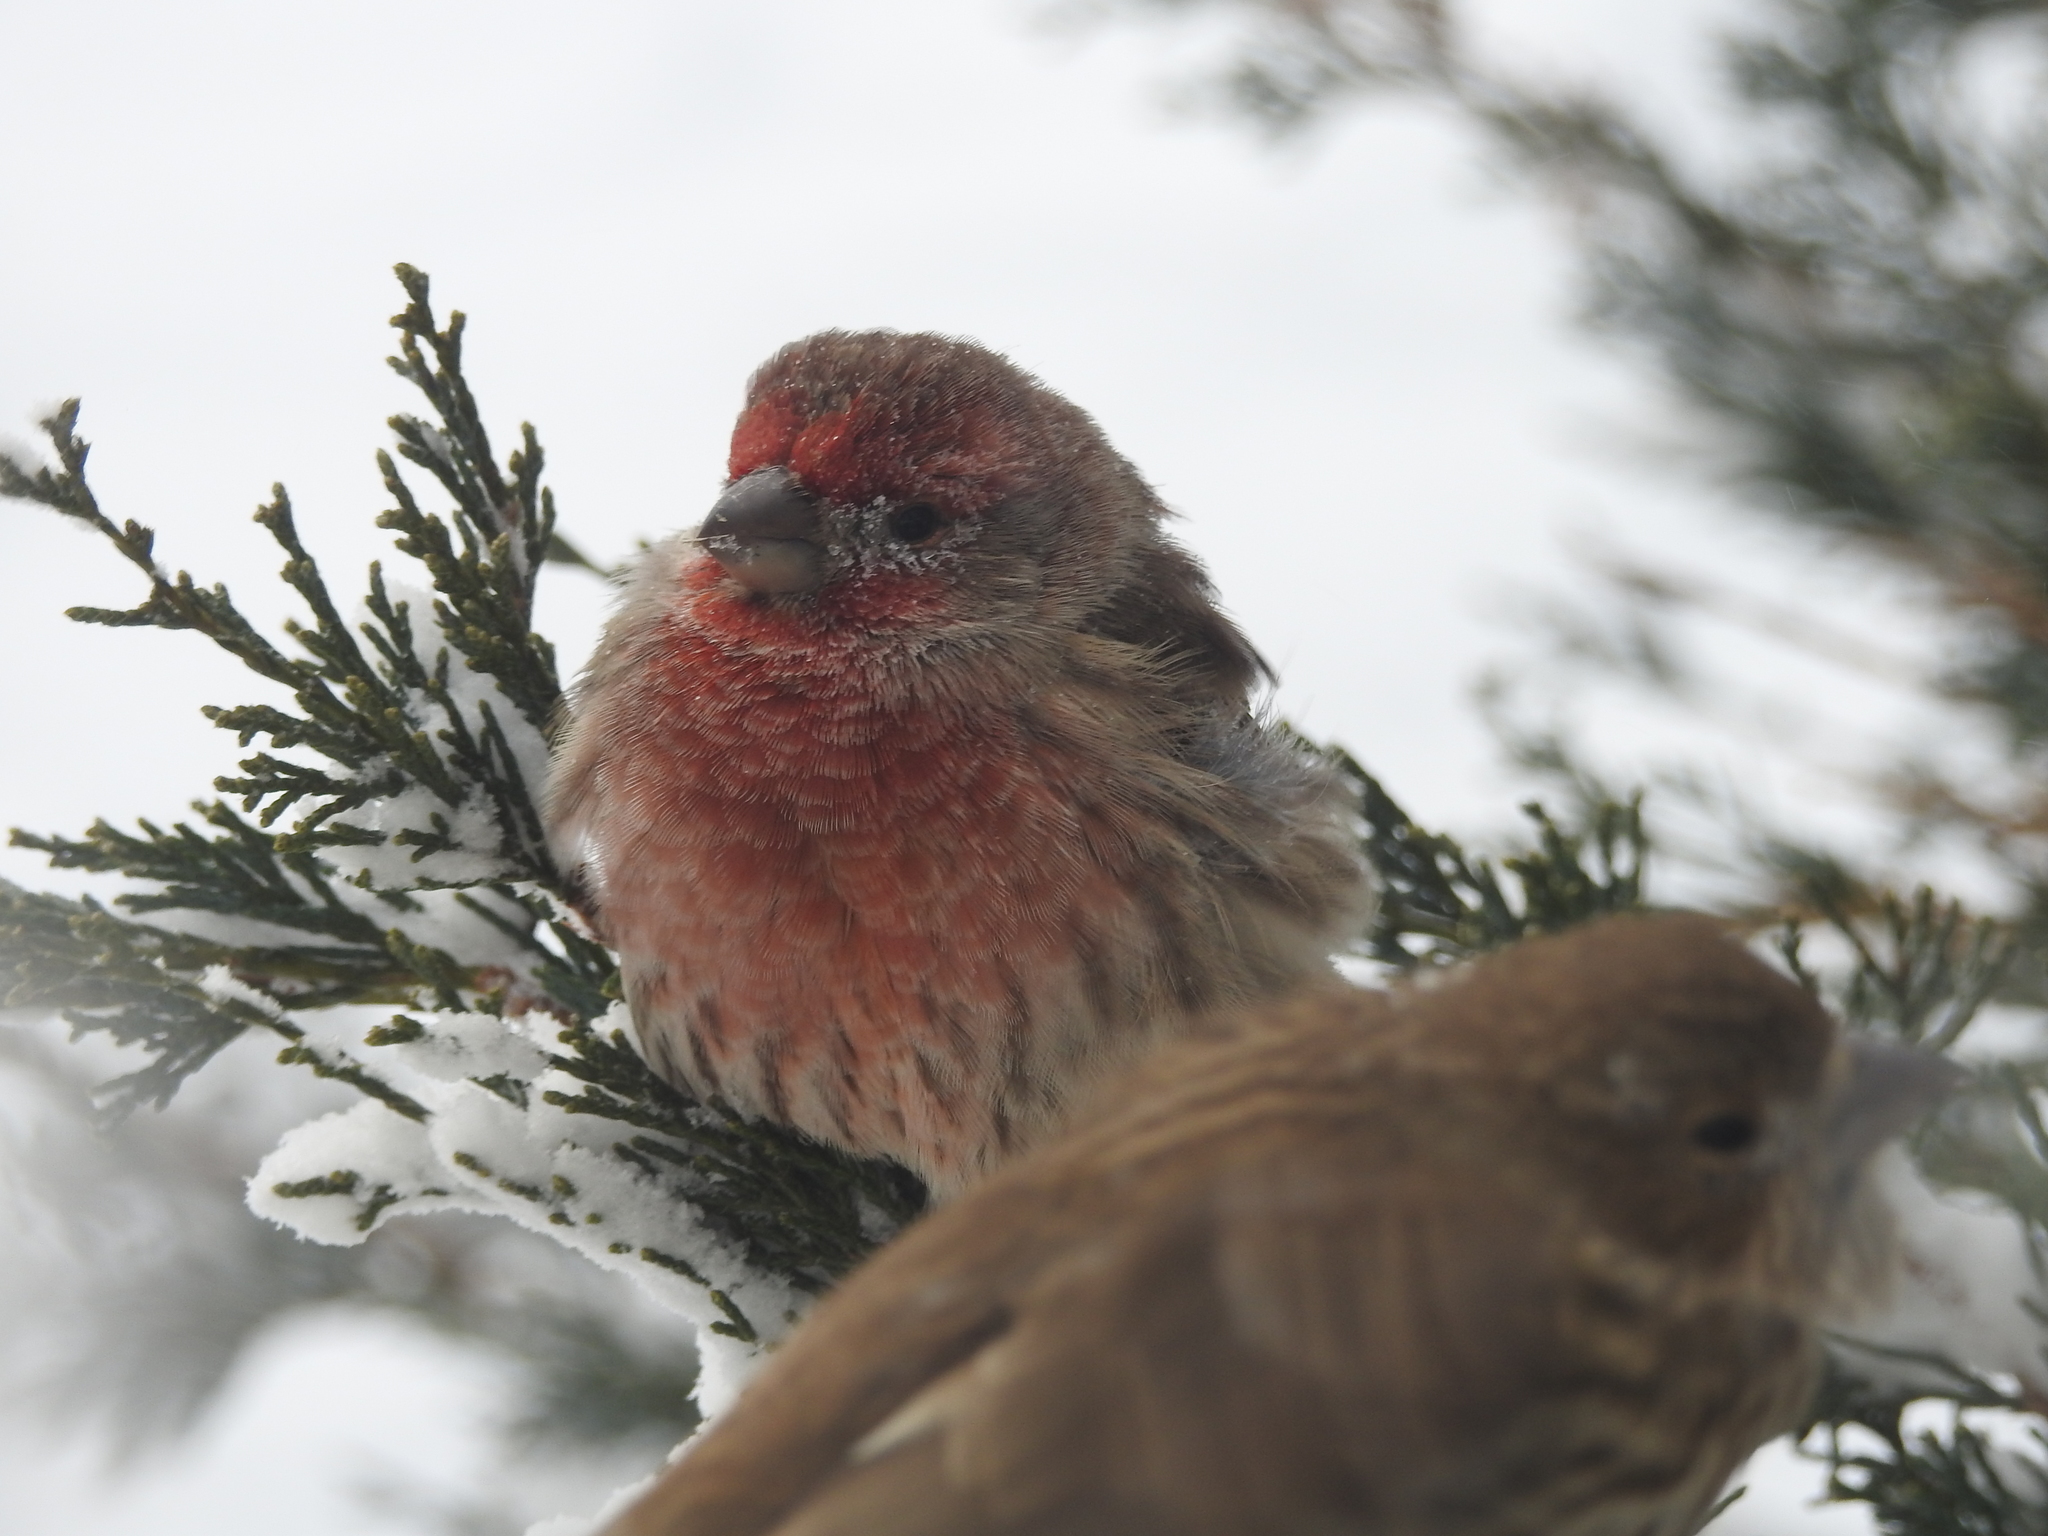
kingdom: Animalia
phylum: Chordata
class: Aves
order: Passeriformes
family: Fringillidae
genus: Haemorhous
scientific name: Haemorhous mexicanus
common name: House finch
